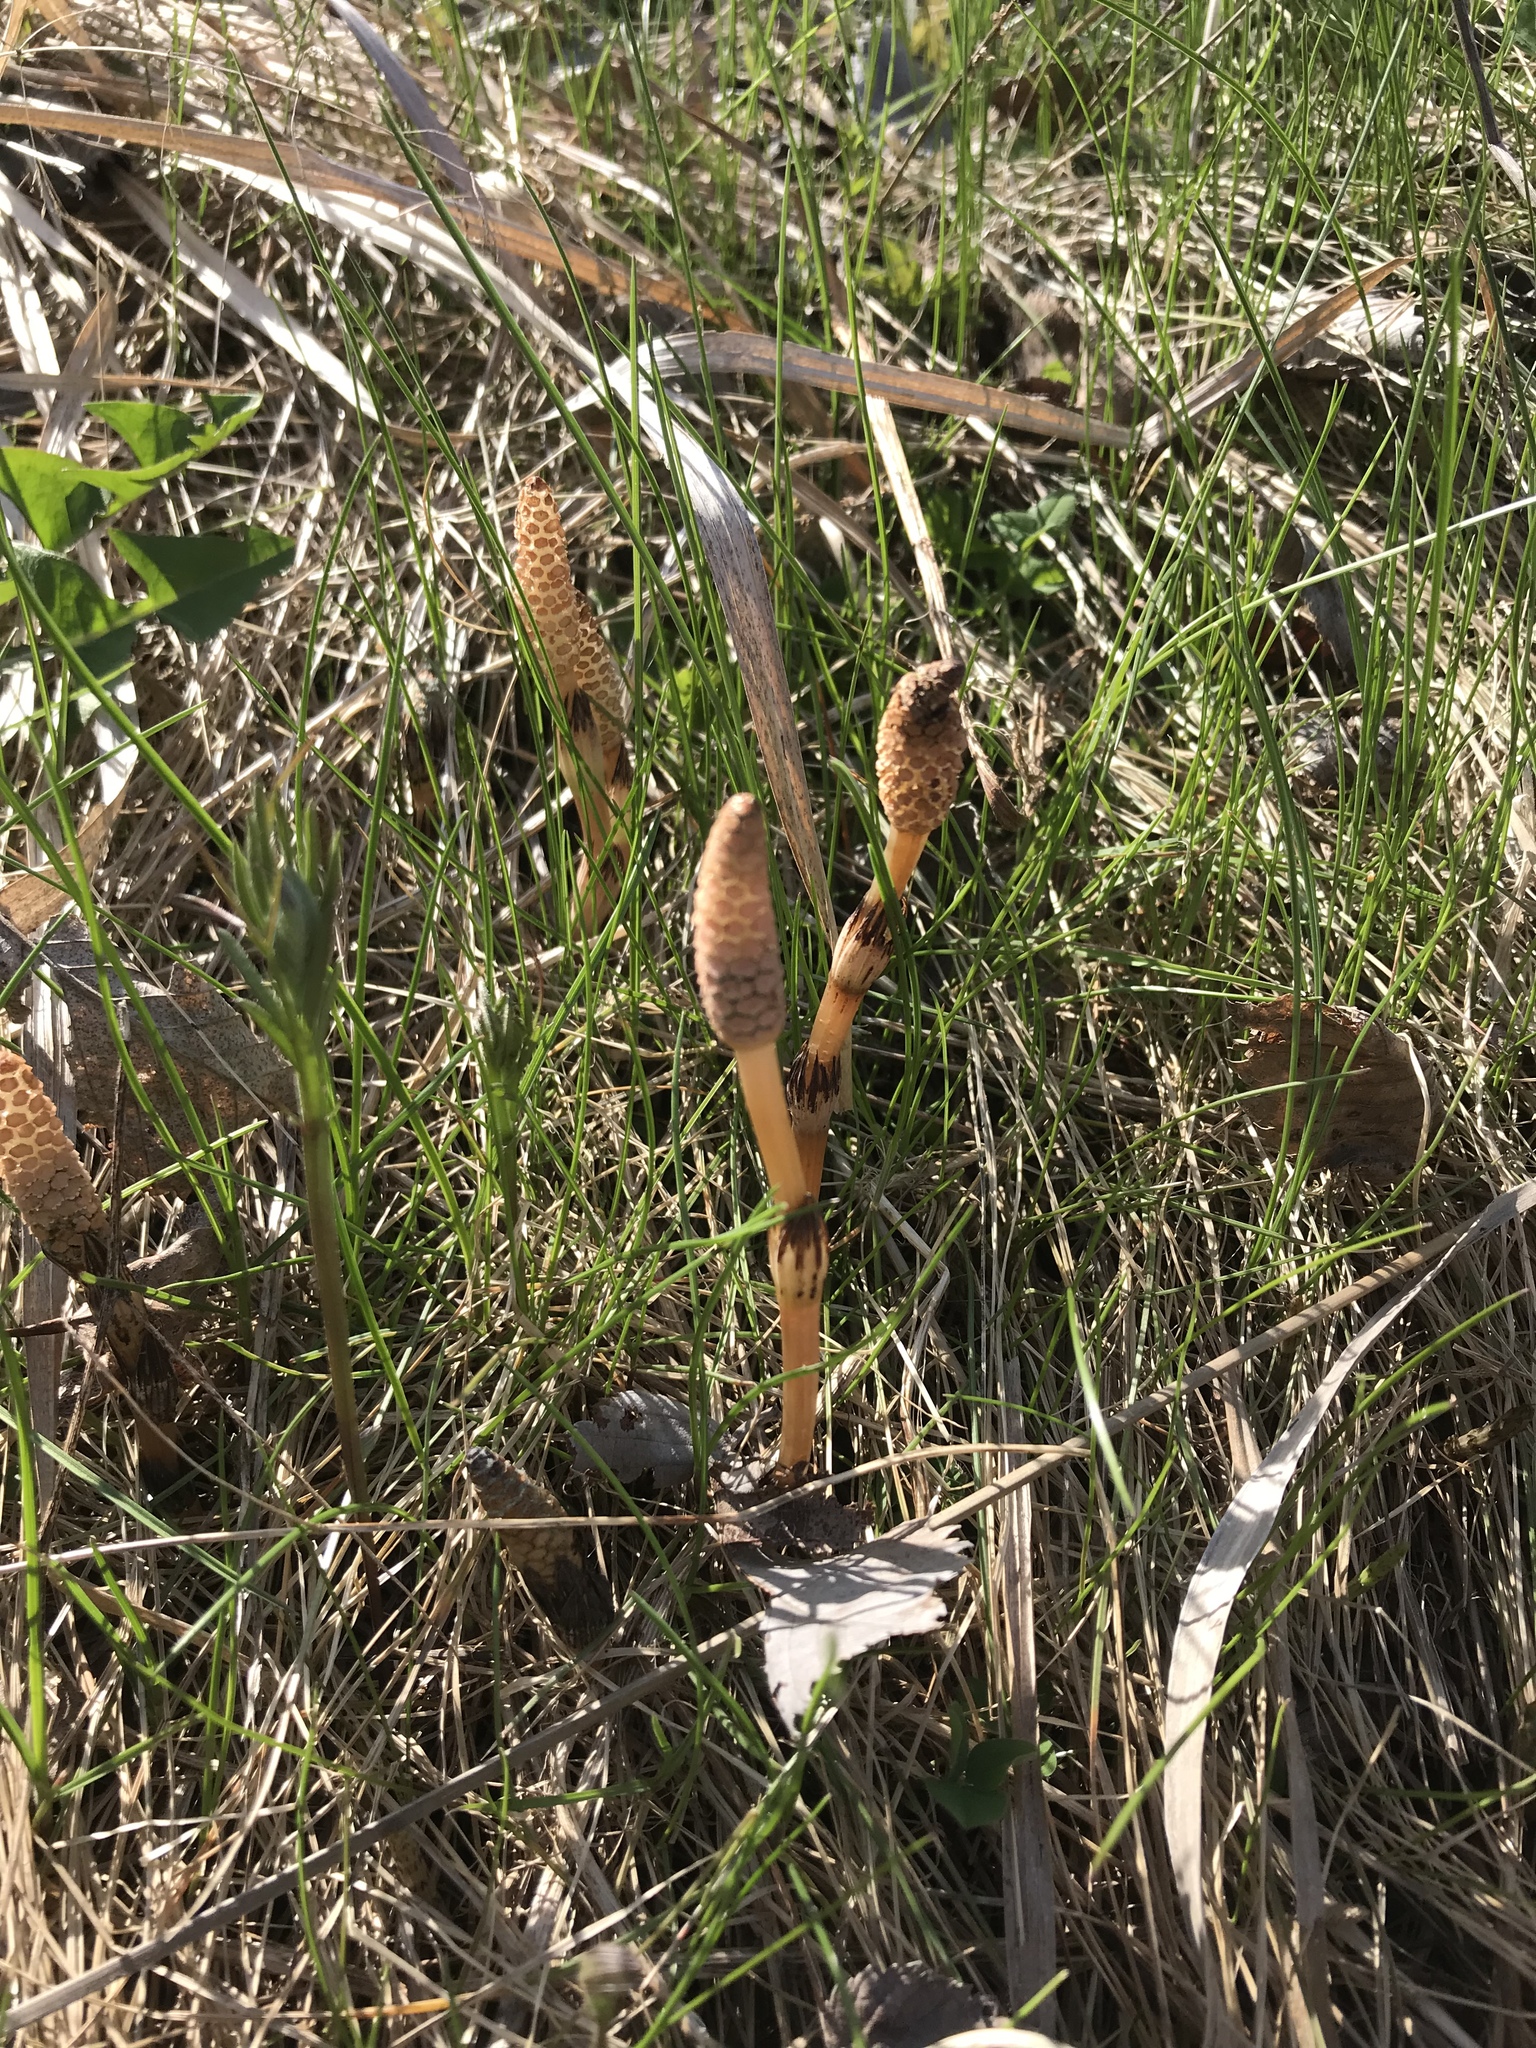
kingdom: Plantae
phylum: Tracheophyta
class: Polypodiopsida
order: Equisetales
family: Equisetaceae
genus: Equisetum
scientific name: Equisetum arvense
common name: Field horsetail
